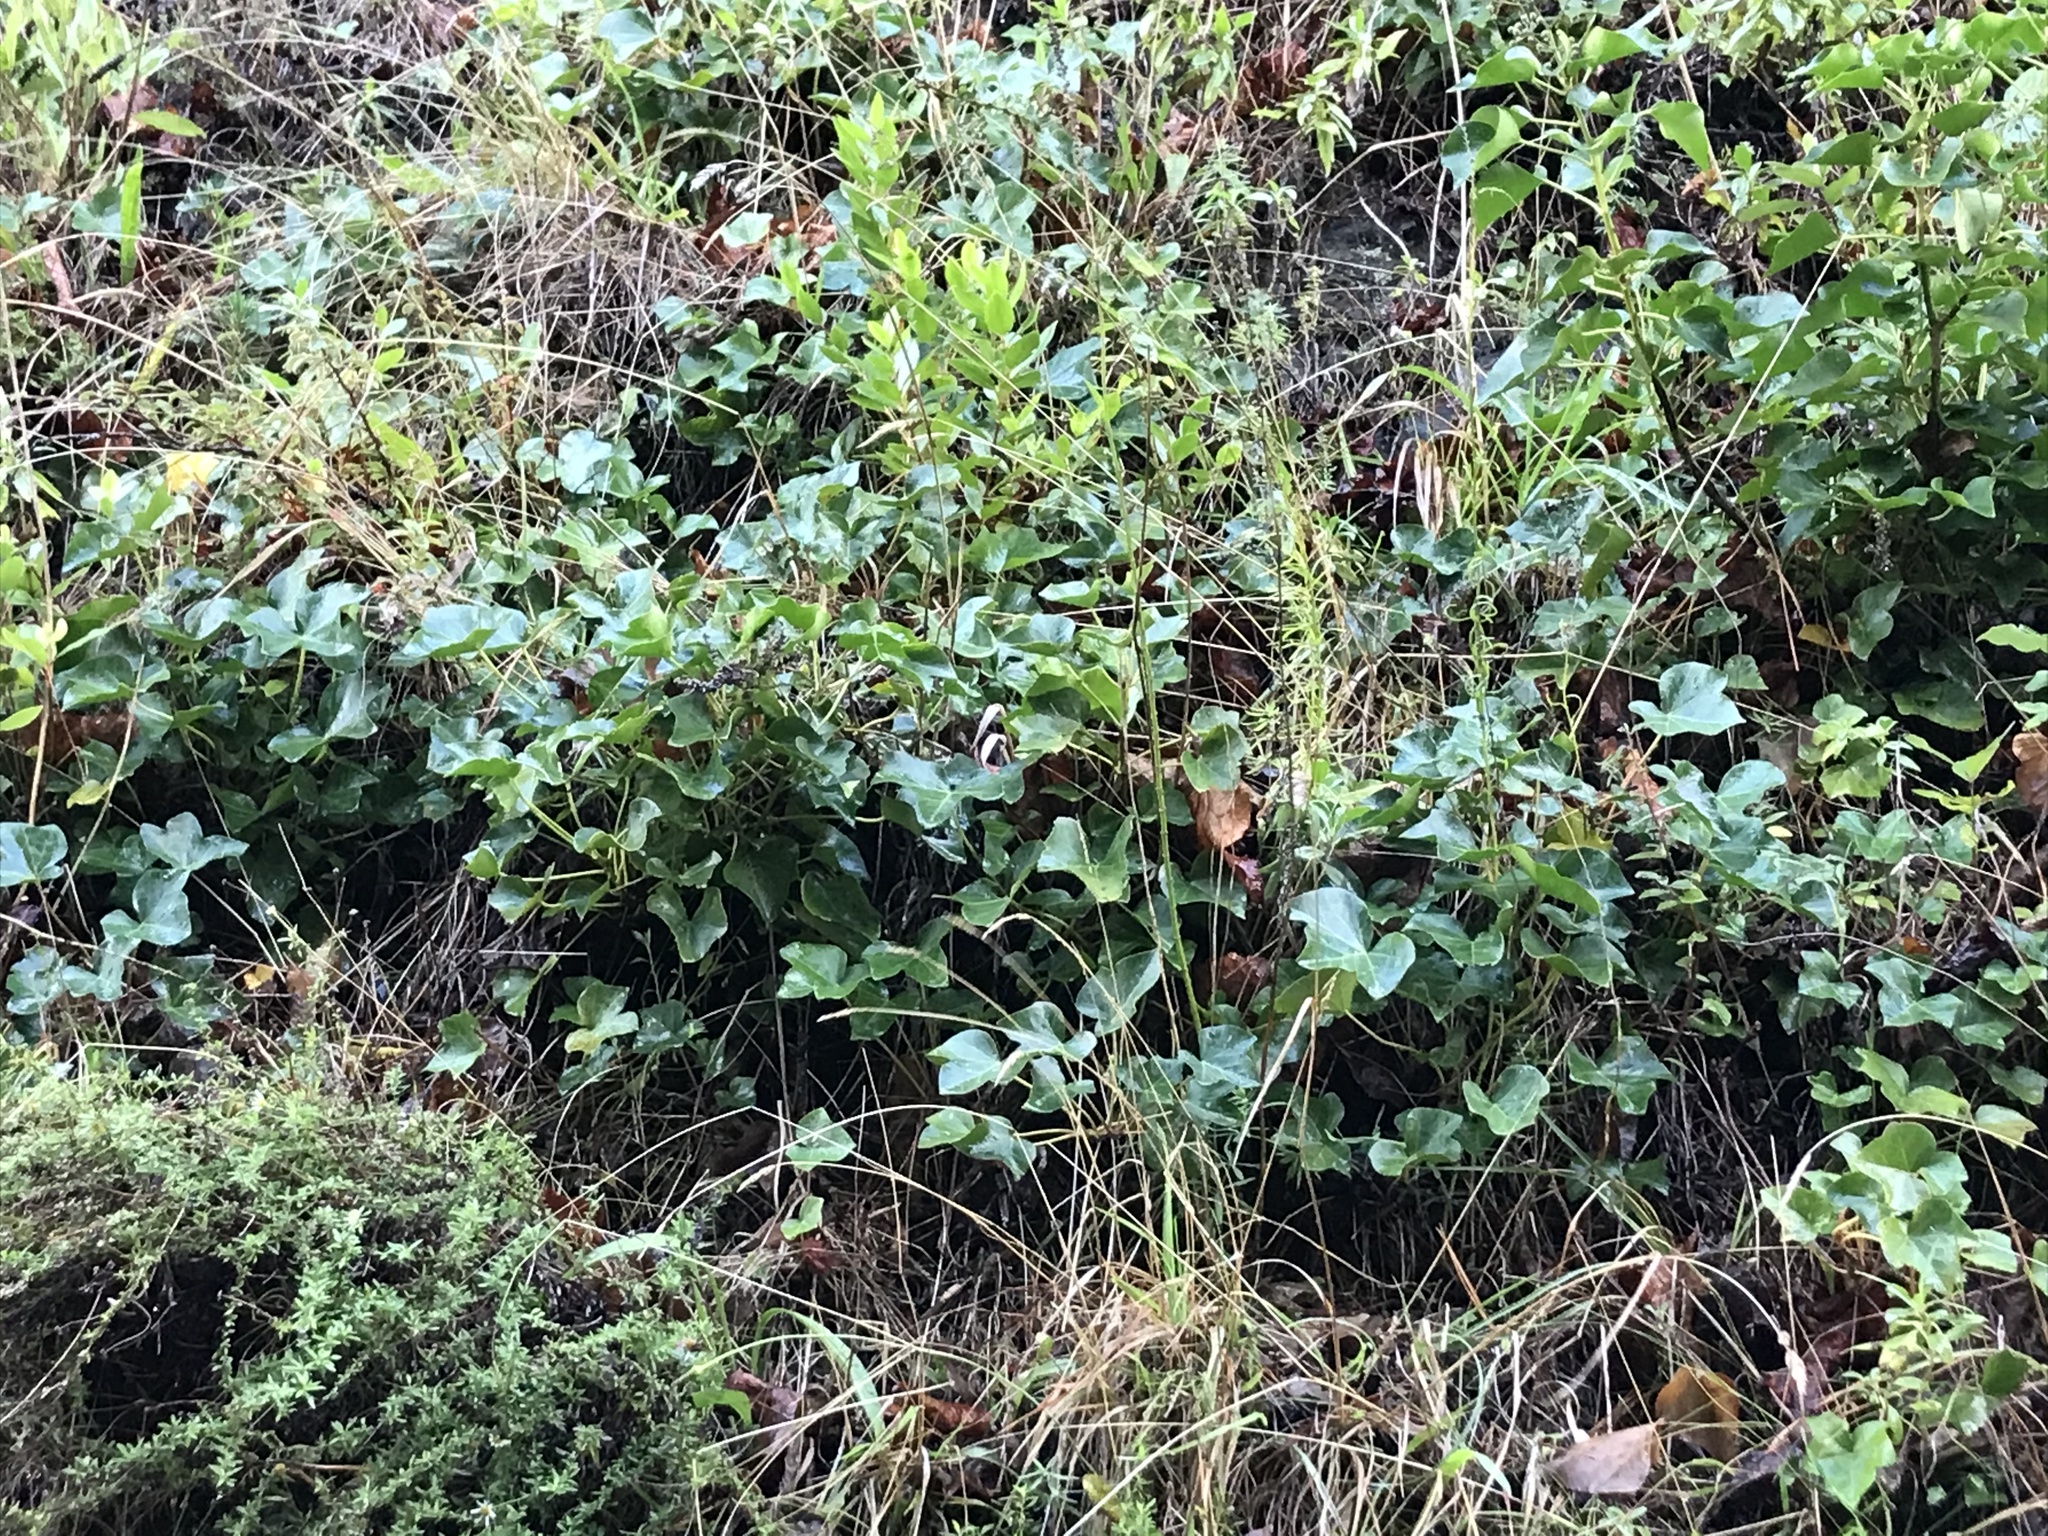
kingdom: Plantae
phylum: Tracheophyta
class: Magnoliopsida
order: Apiales
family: Araliaceae
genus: Hedera
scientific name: Hedera helix
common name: Ivy
